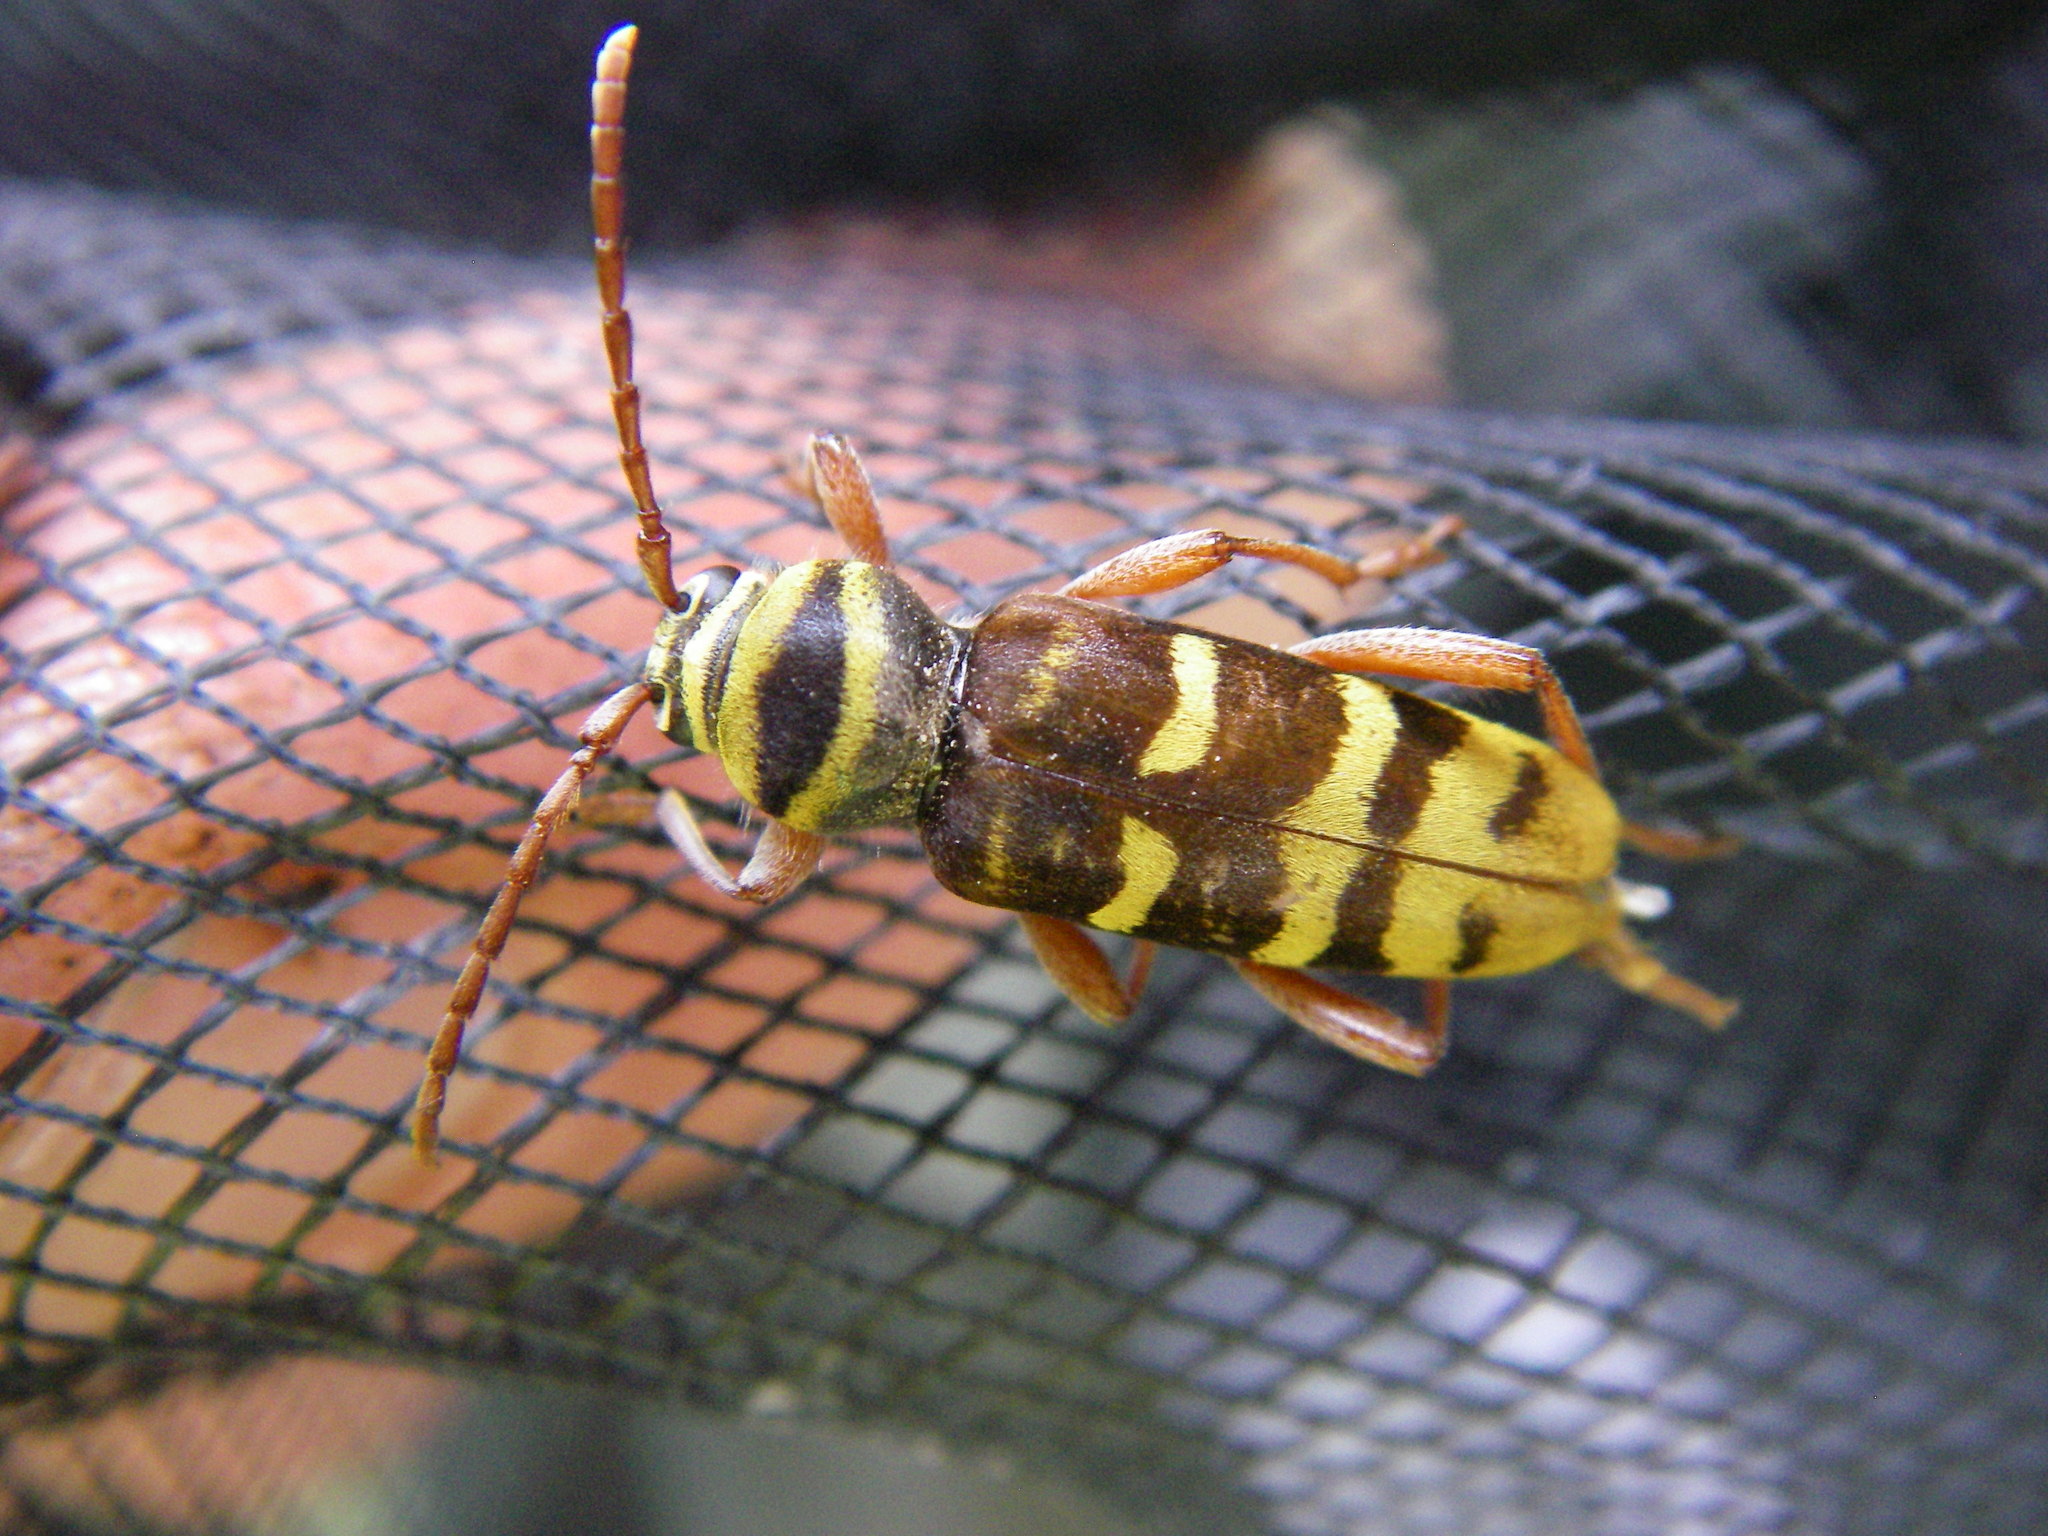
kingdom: Animalia
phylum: Arthropoda
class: Insecta
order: Coleoptera
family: Cerambycidae
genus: Plagionotus
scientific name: Plagionotus detritus
